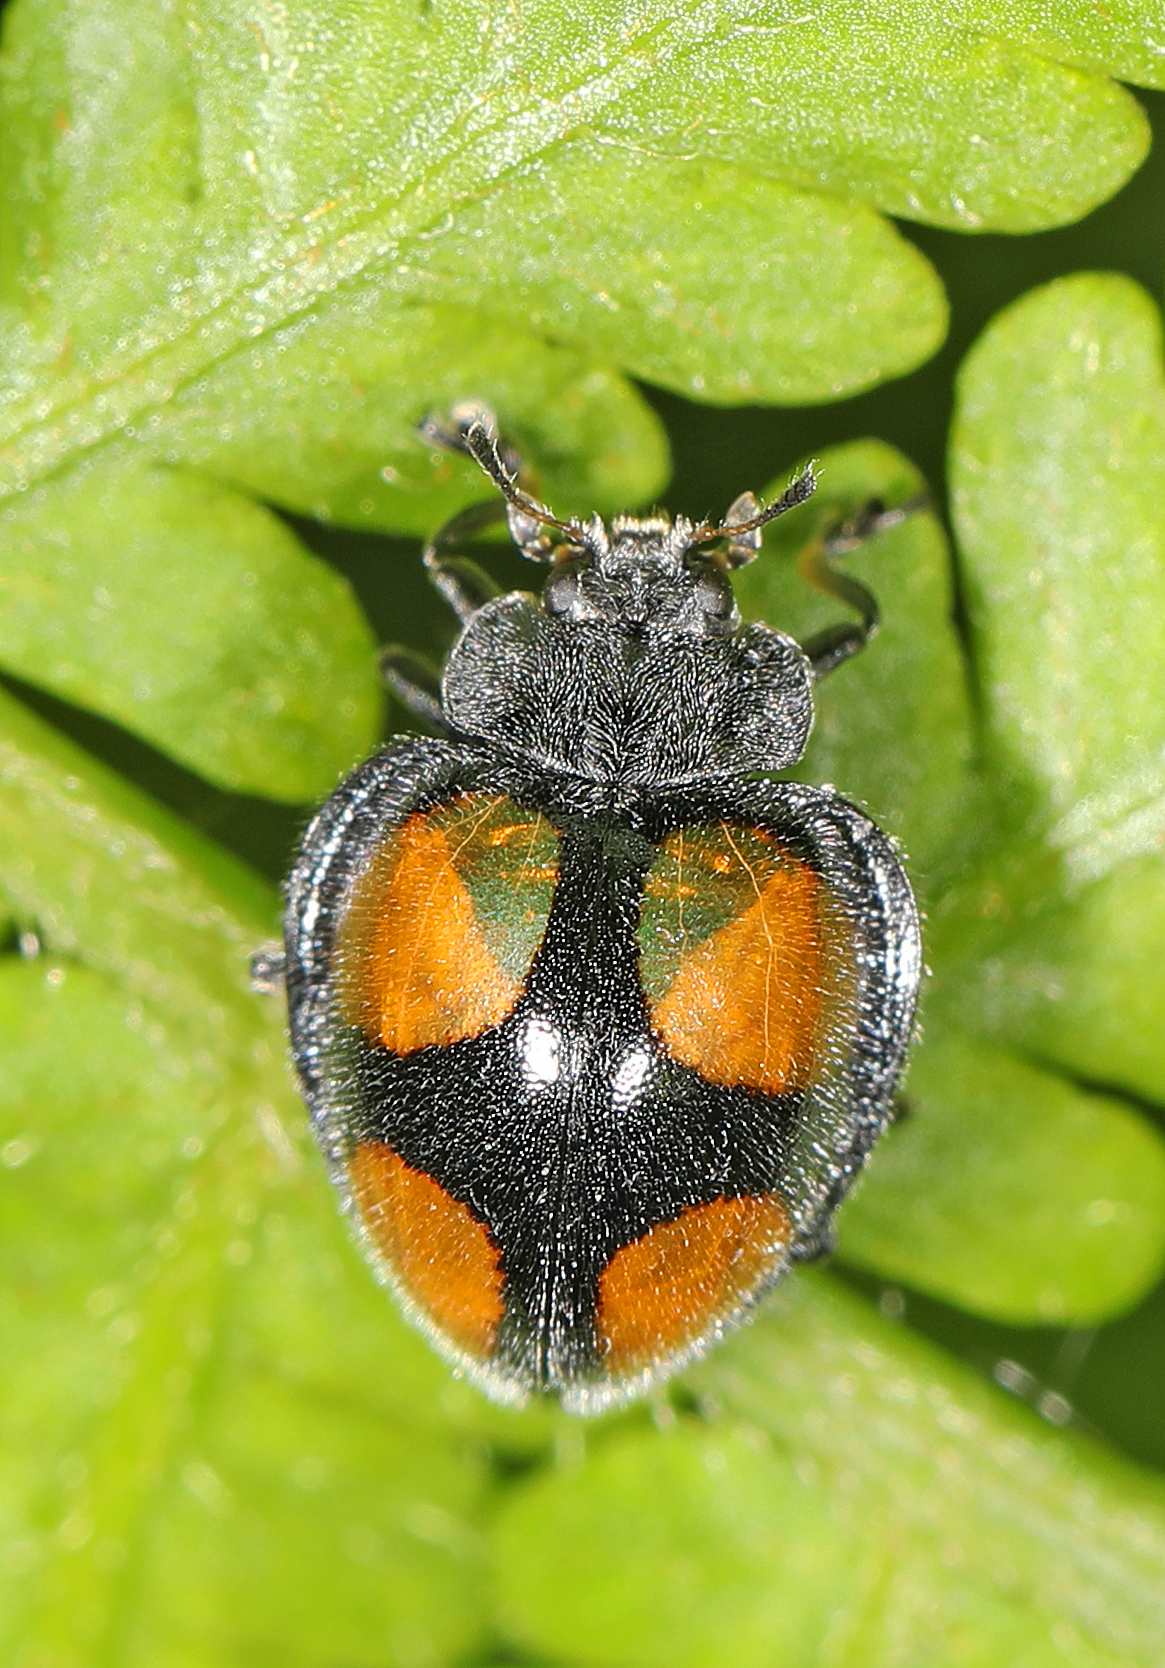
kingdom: Animalia
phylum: Arthropoda
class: Insecta
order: Coleoptera
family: Coccinellidae
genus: Epilachna
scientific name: Epilachna
